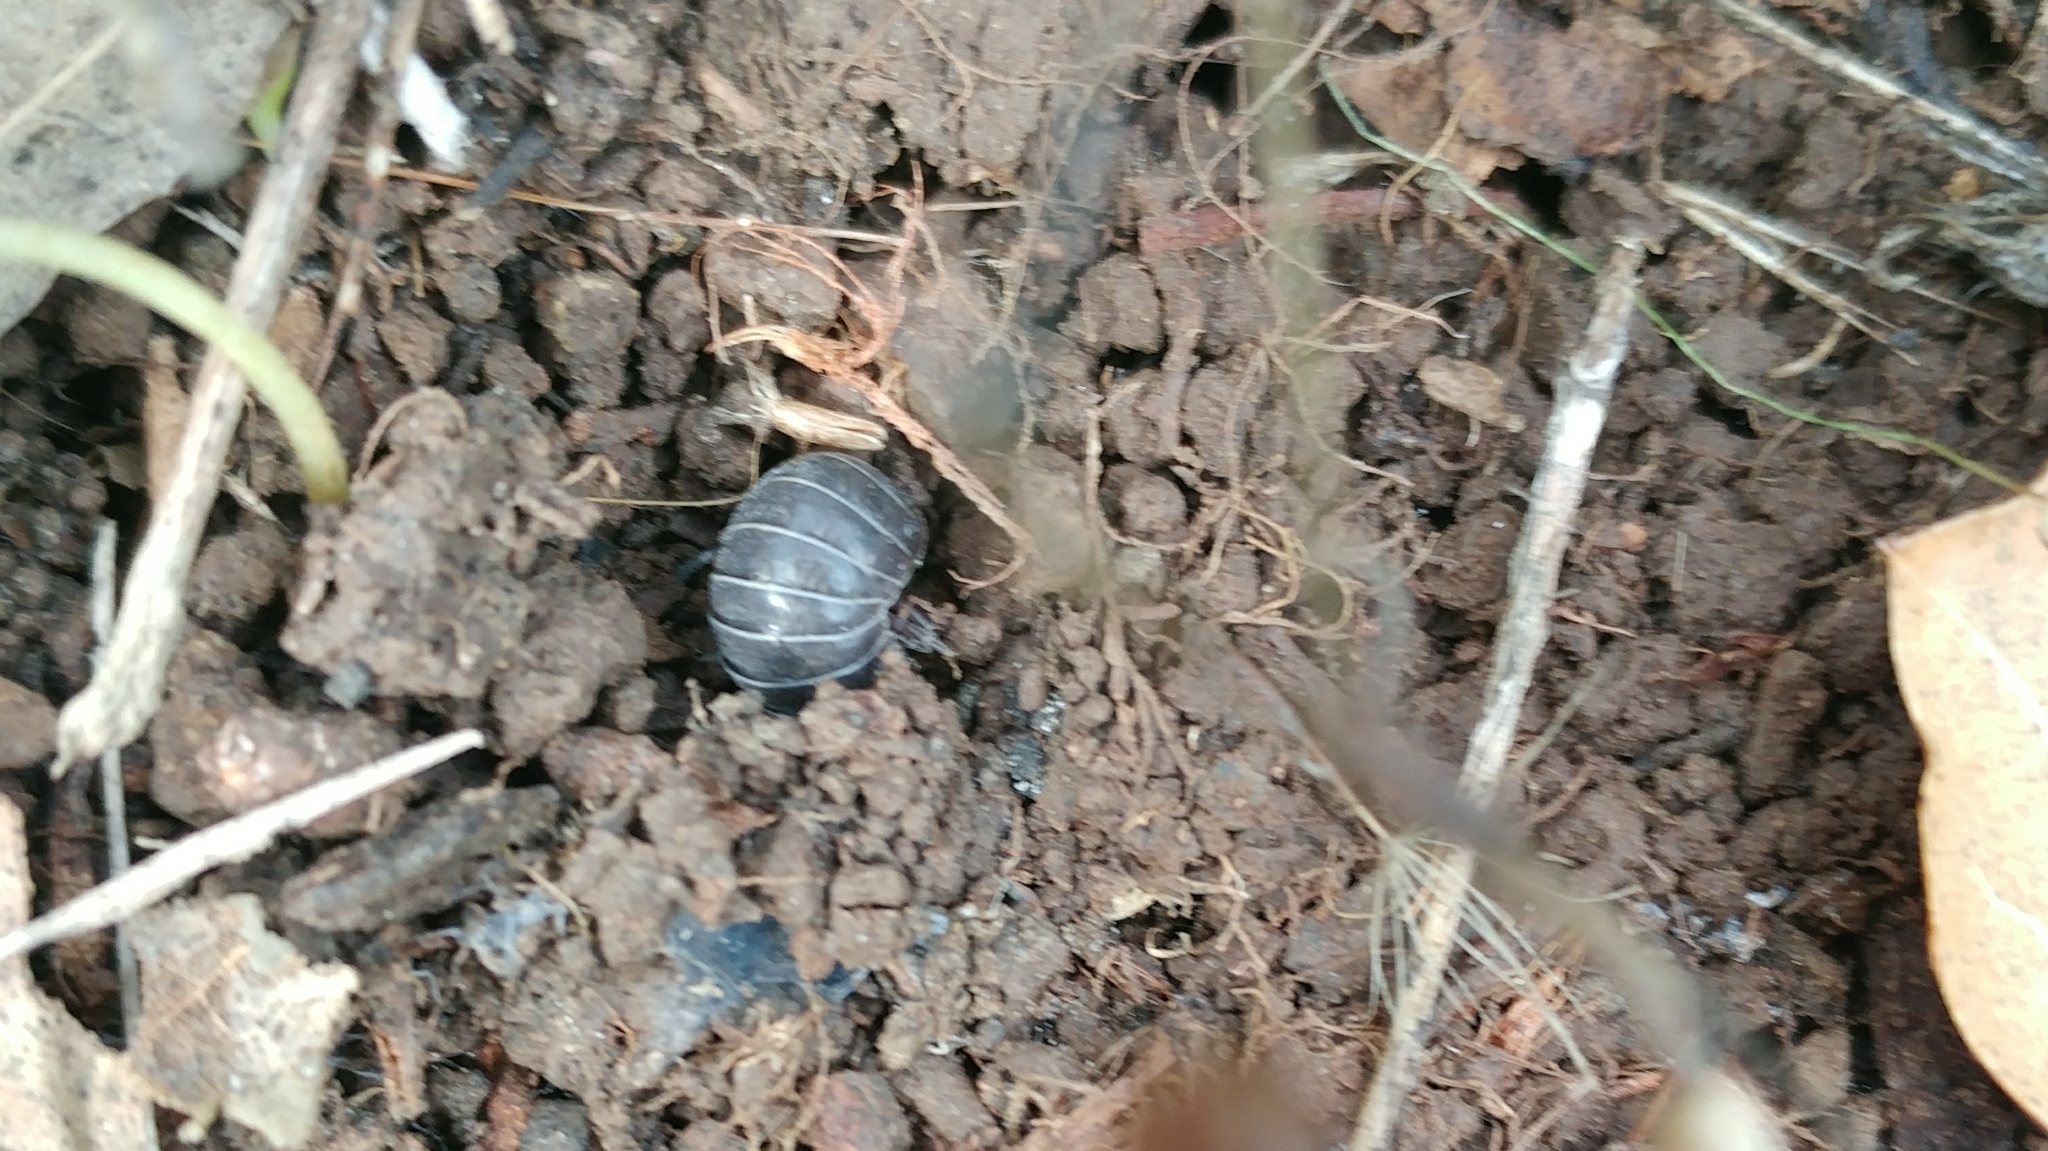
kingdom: Animalia
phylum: Arthropoda
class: Malacostraca
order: Isopoda
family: Armadillidiidae
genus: Armadillidium
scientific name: Armadillidium vulgare
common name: Common pill woodlouse
